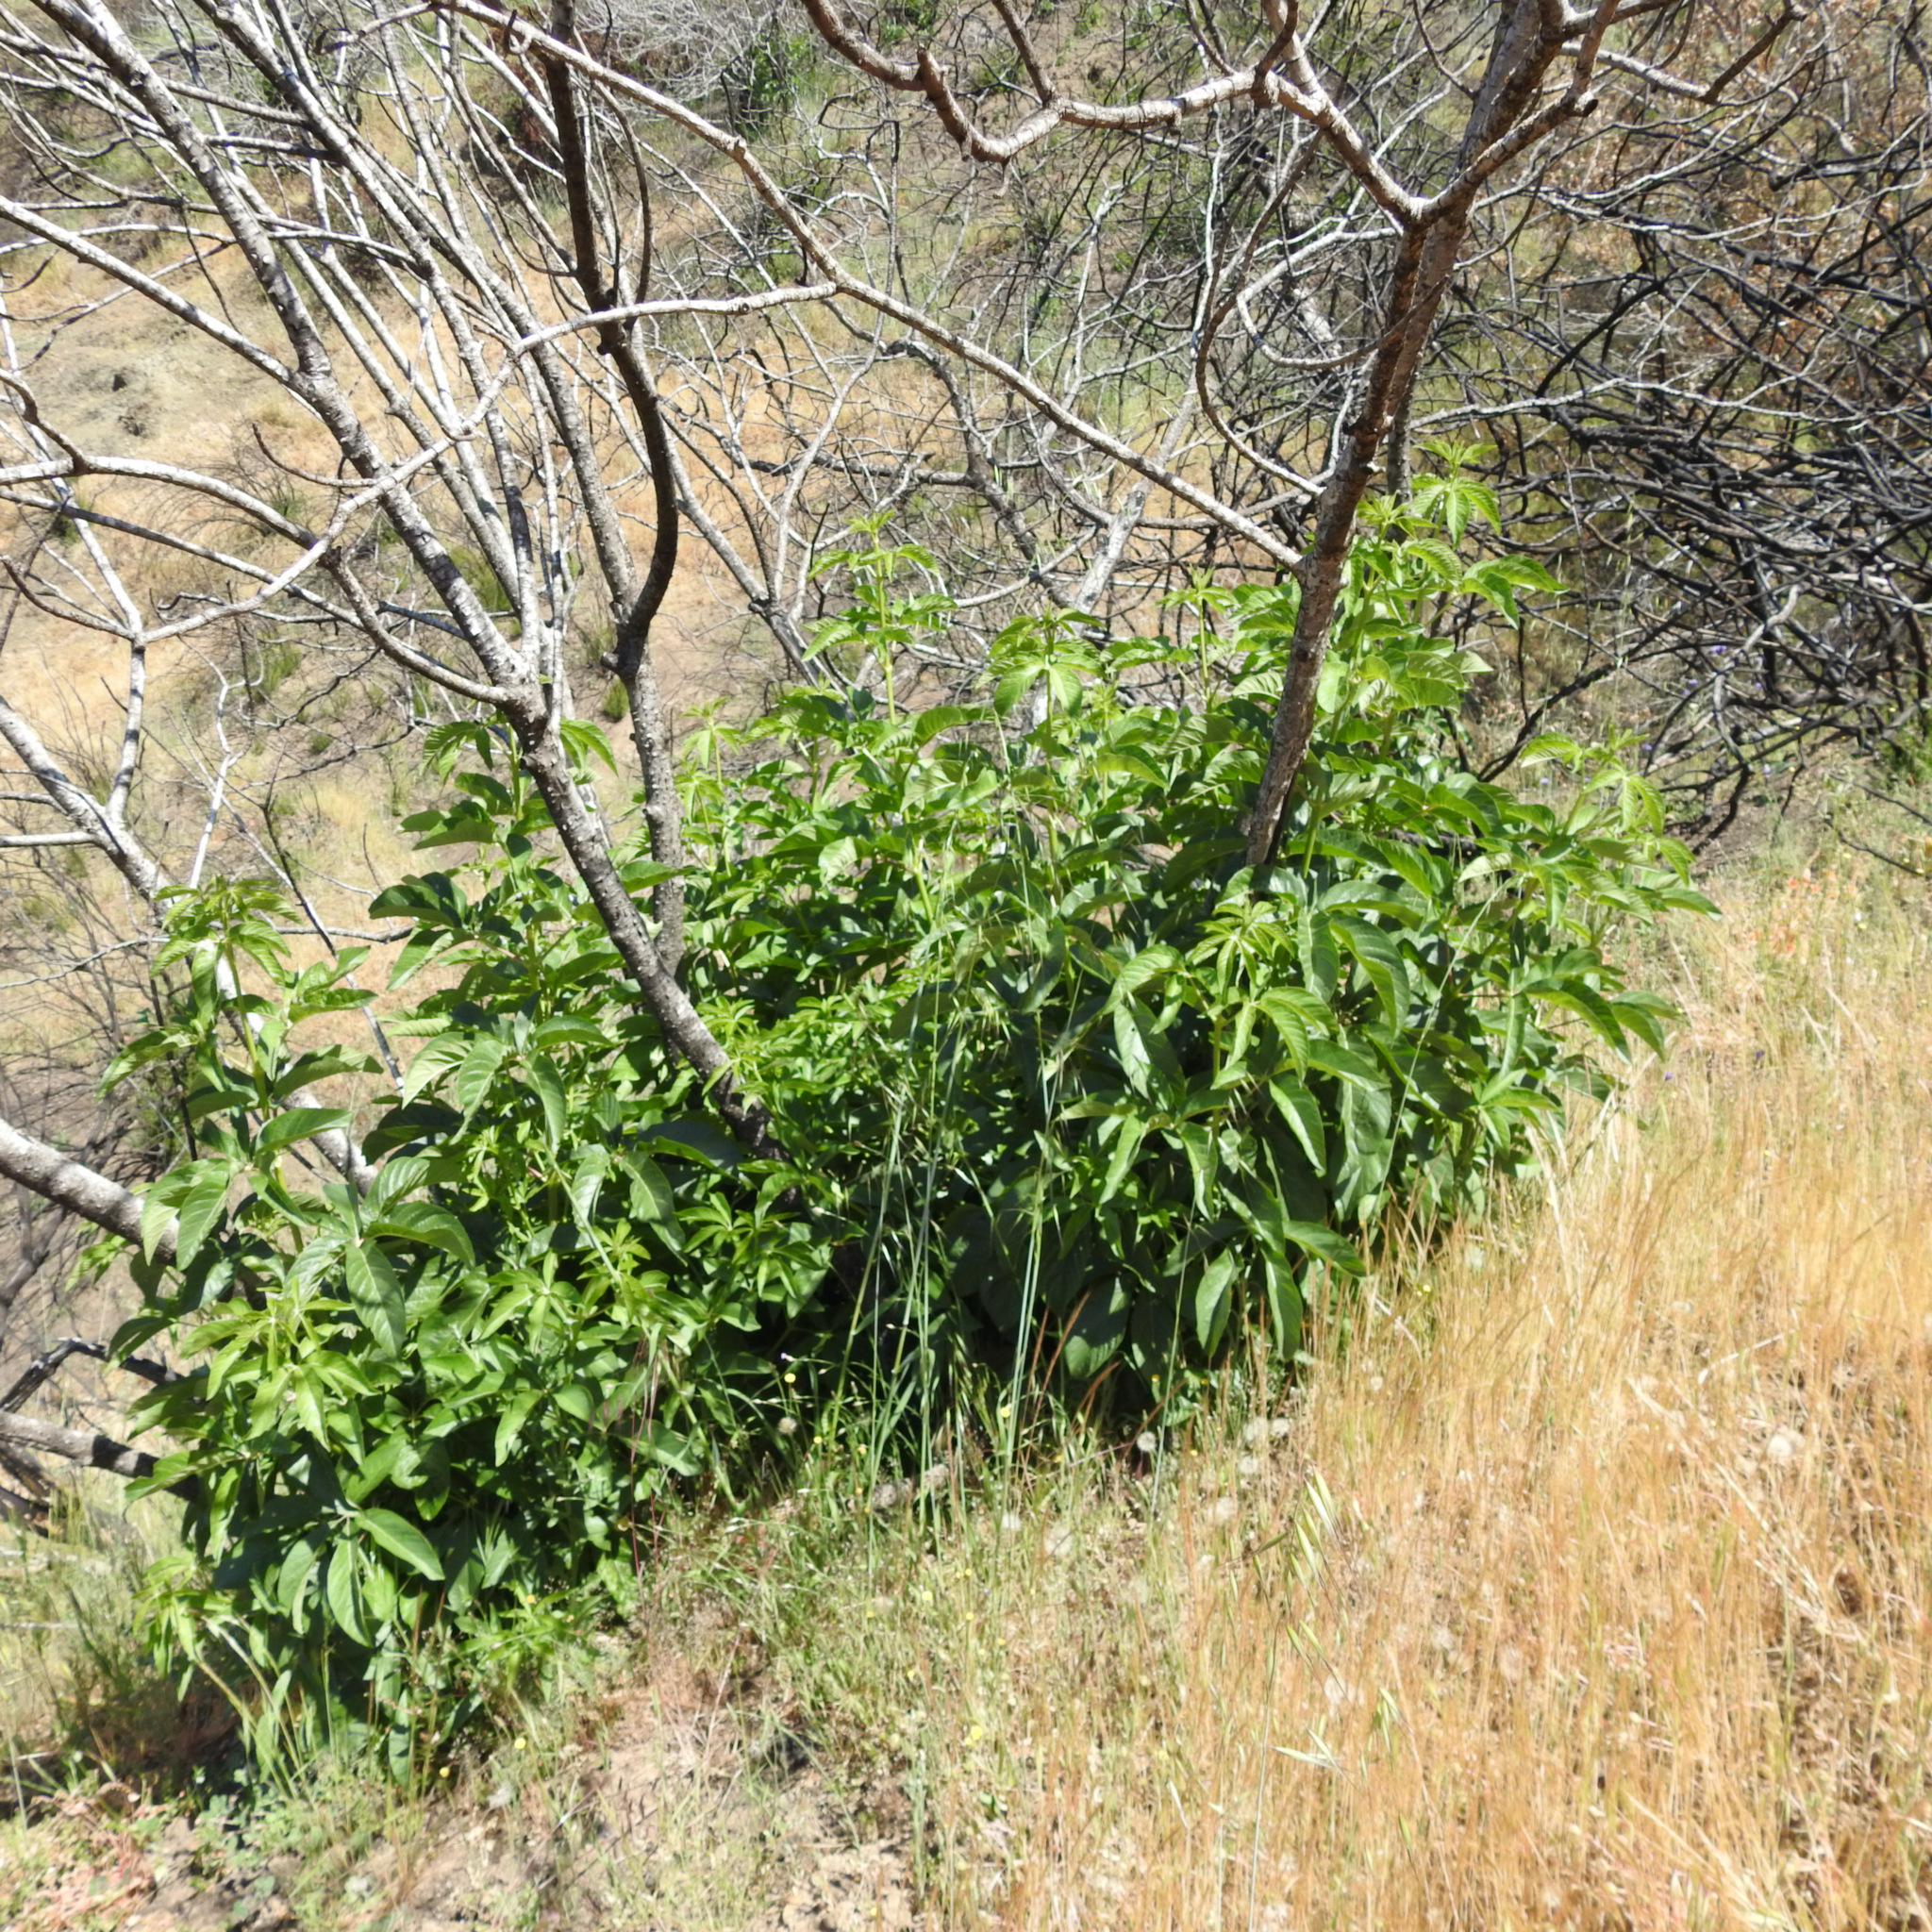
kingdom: Plantae
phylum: Tracheophyta
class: Magnoliopsida
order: Sapindales
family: Sapindaceae
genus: Aesculus
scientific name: Aesculus californica
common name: California buckeye
